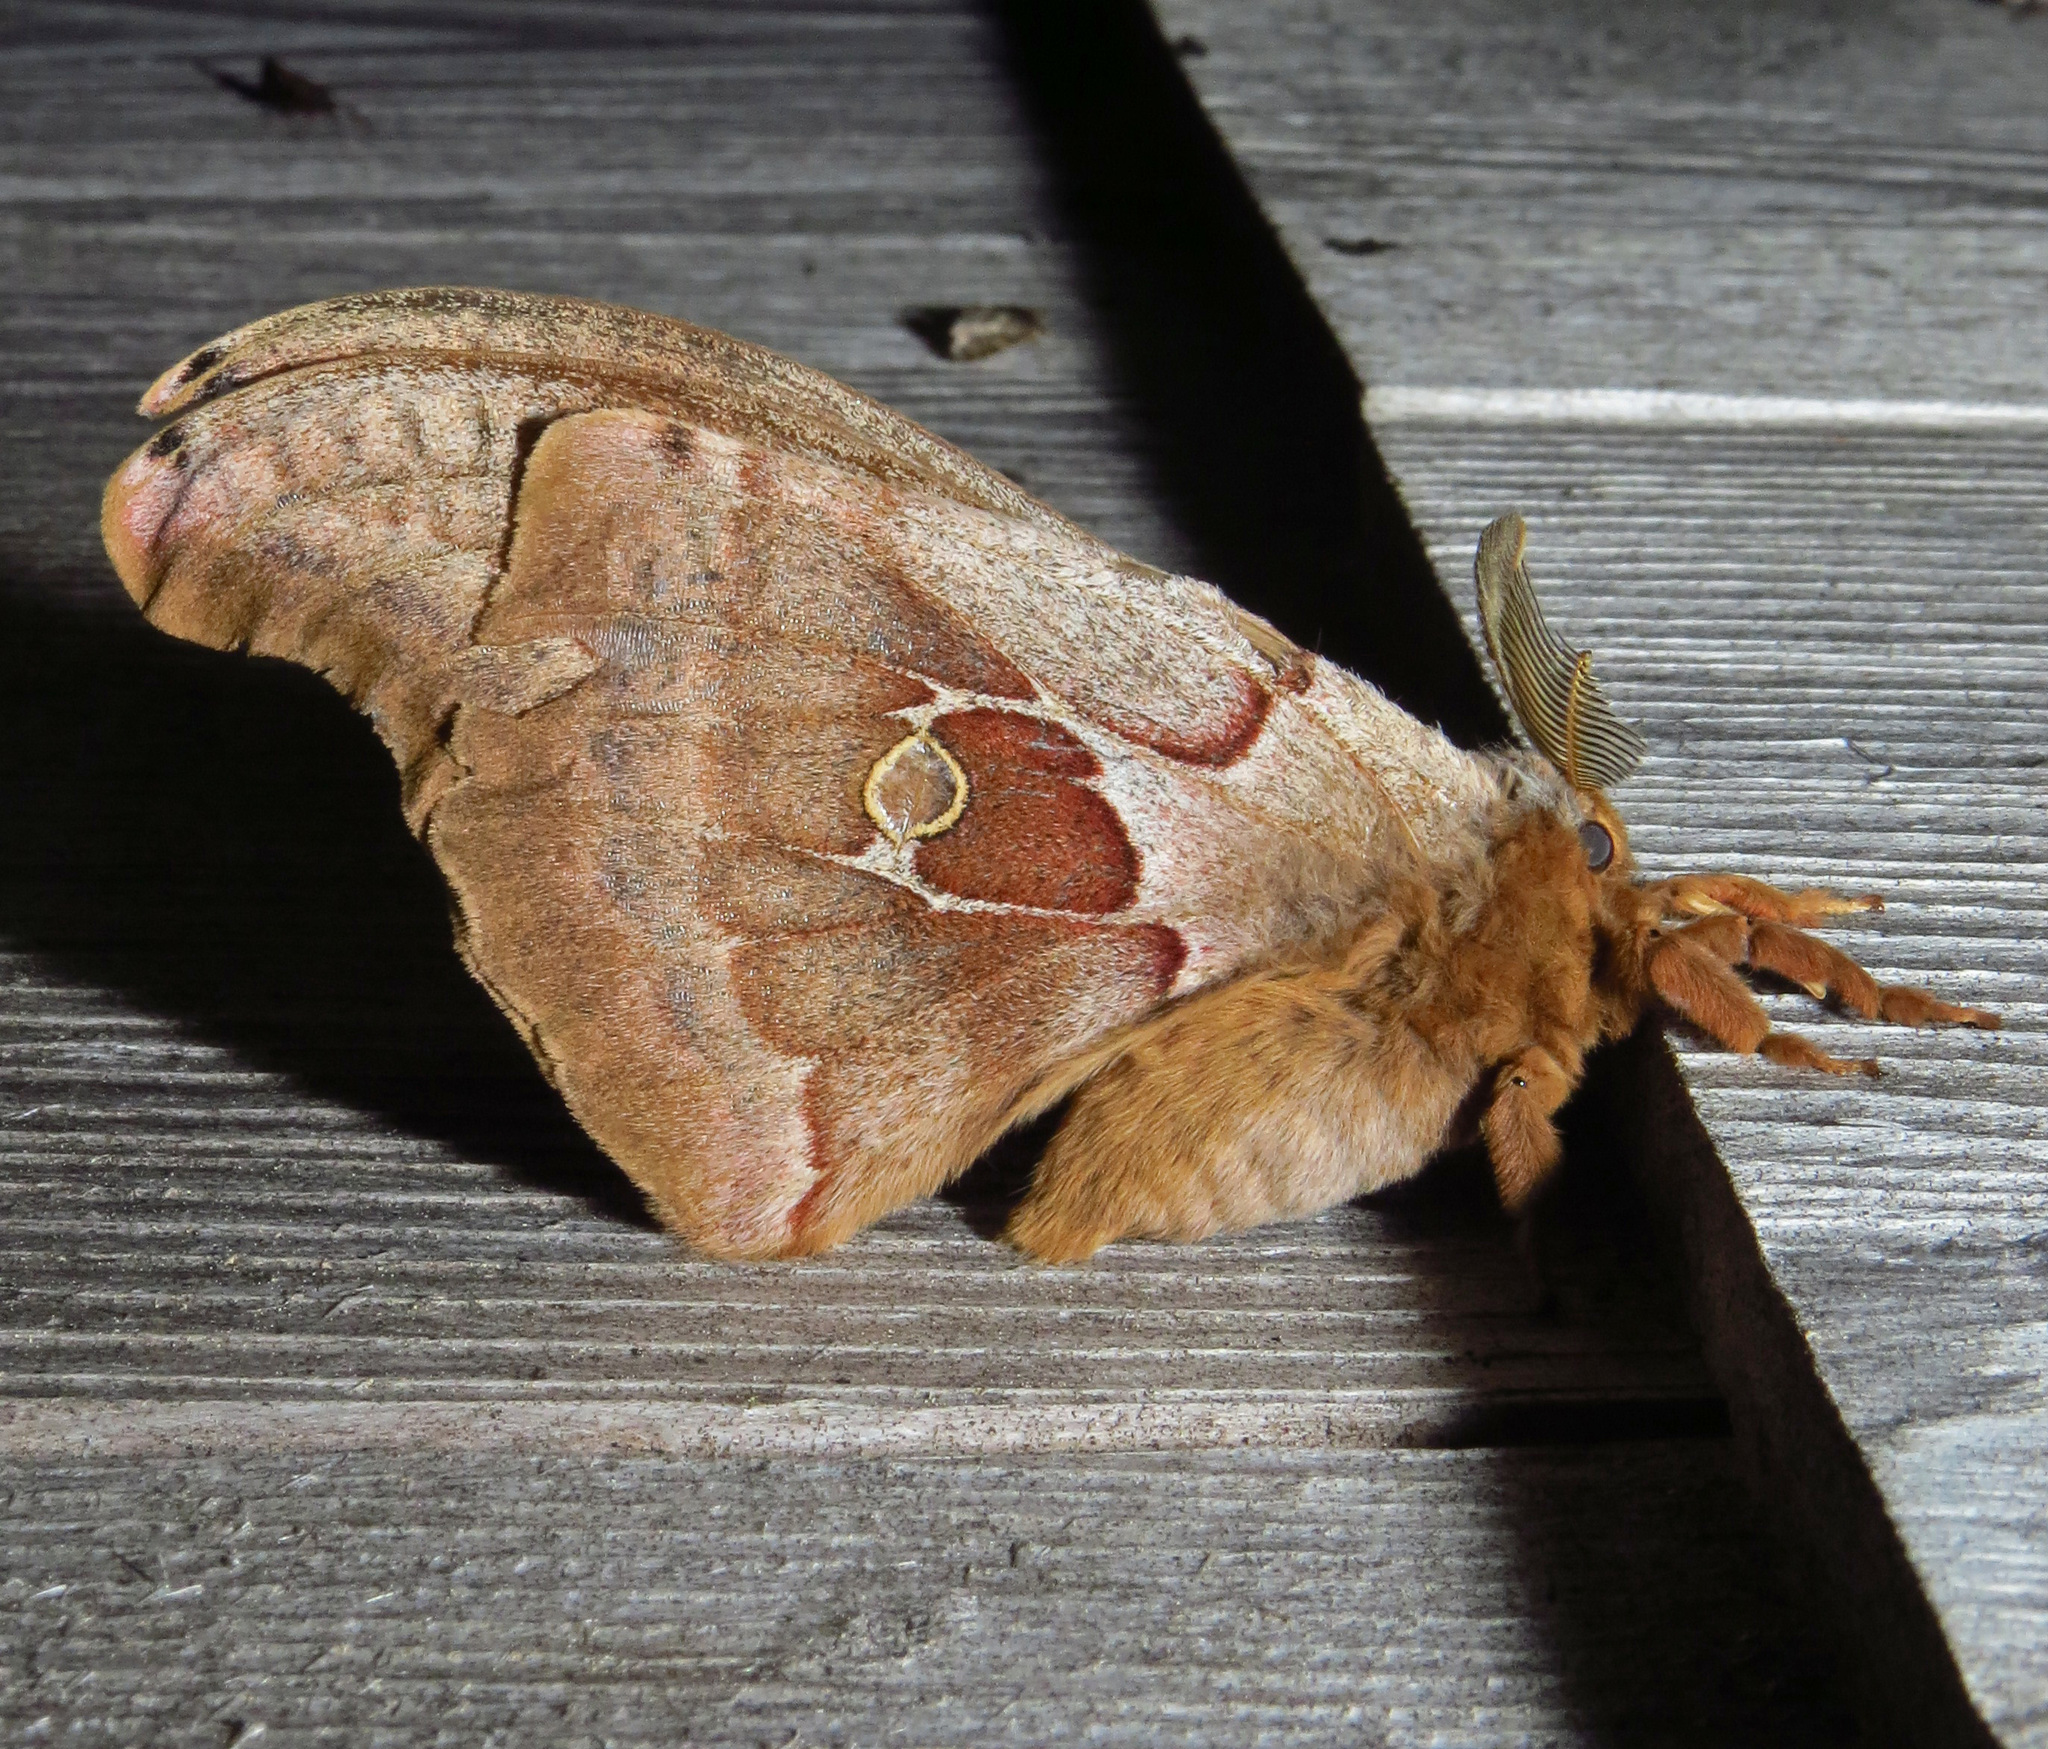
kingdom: Animalia
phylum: Arthropoda
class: Insecta
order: Lepidoptera
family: Saturniidae
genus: Antheraea
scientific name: Antheraea polyphemus
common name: Polyphemus moth
